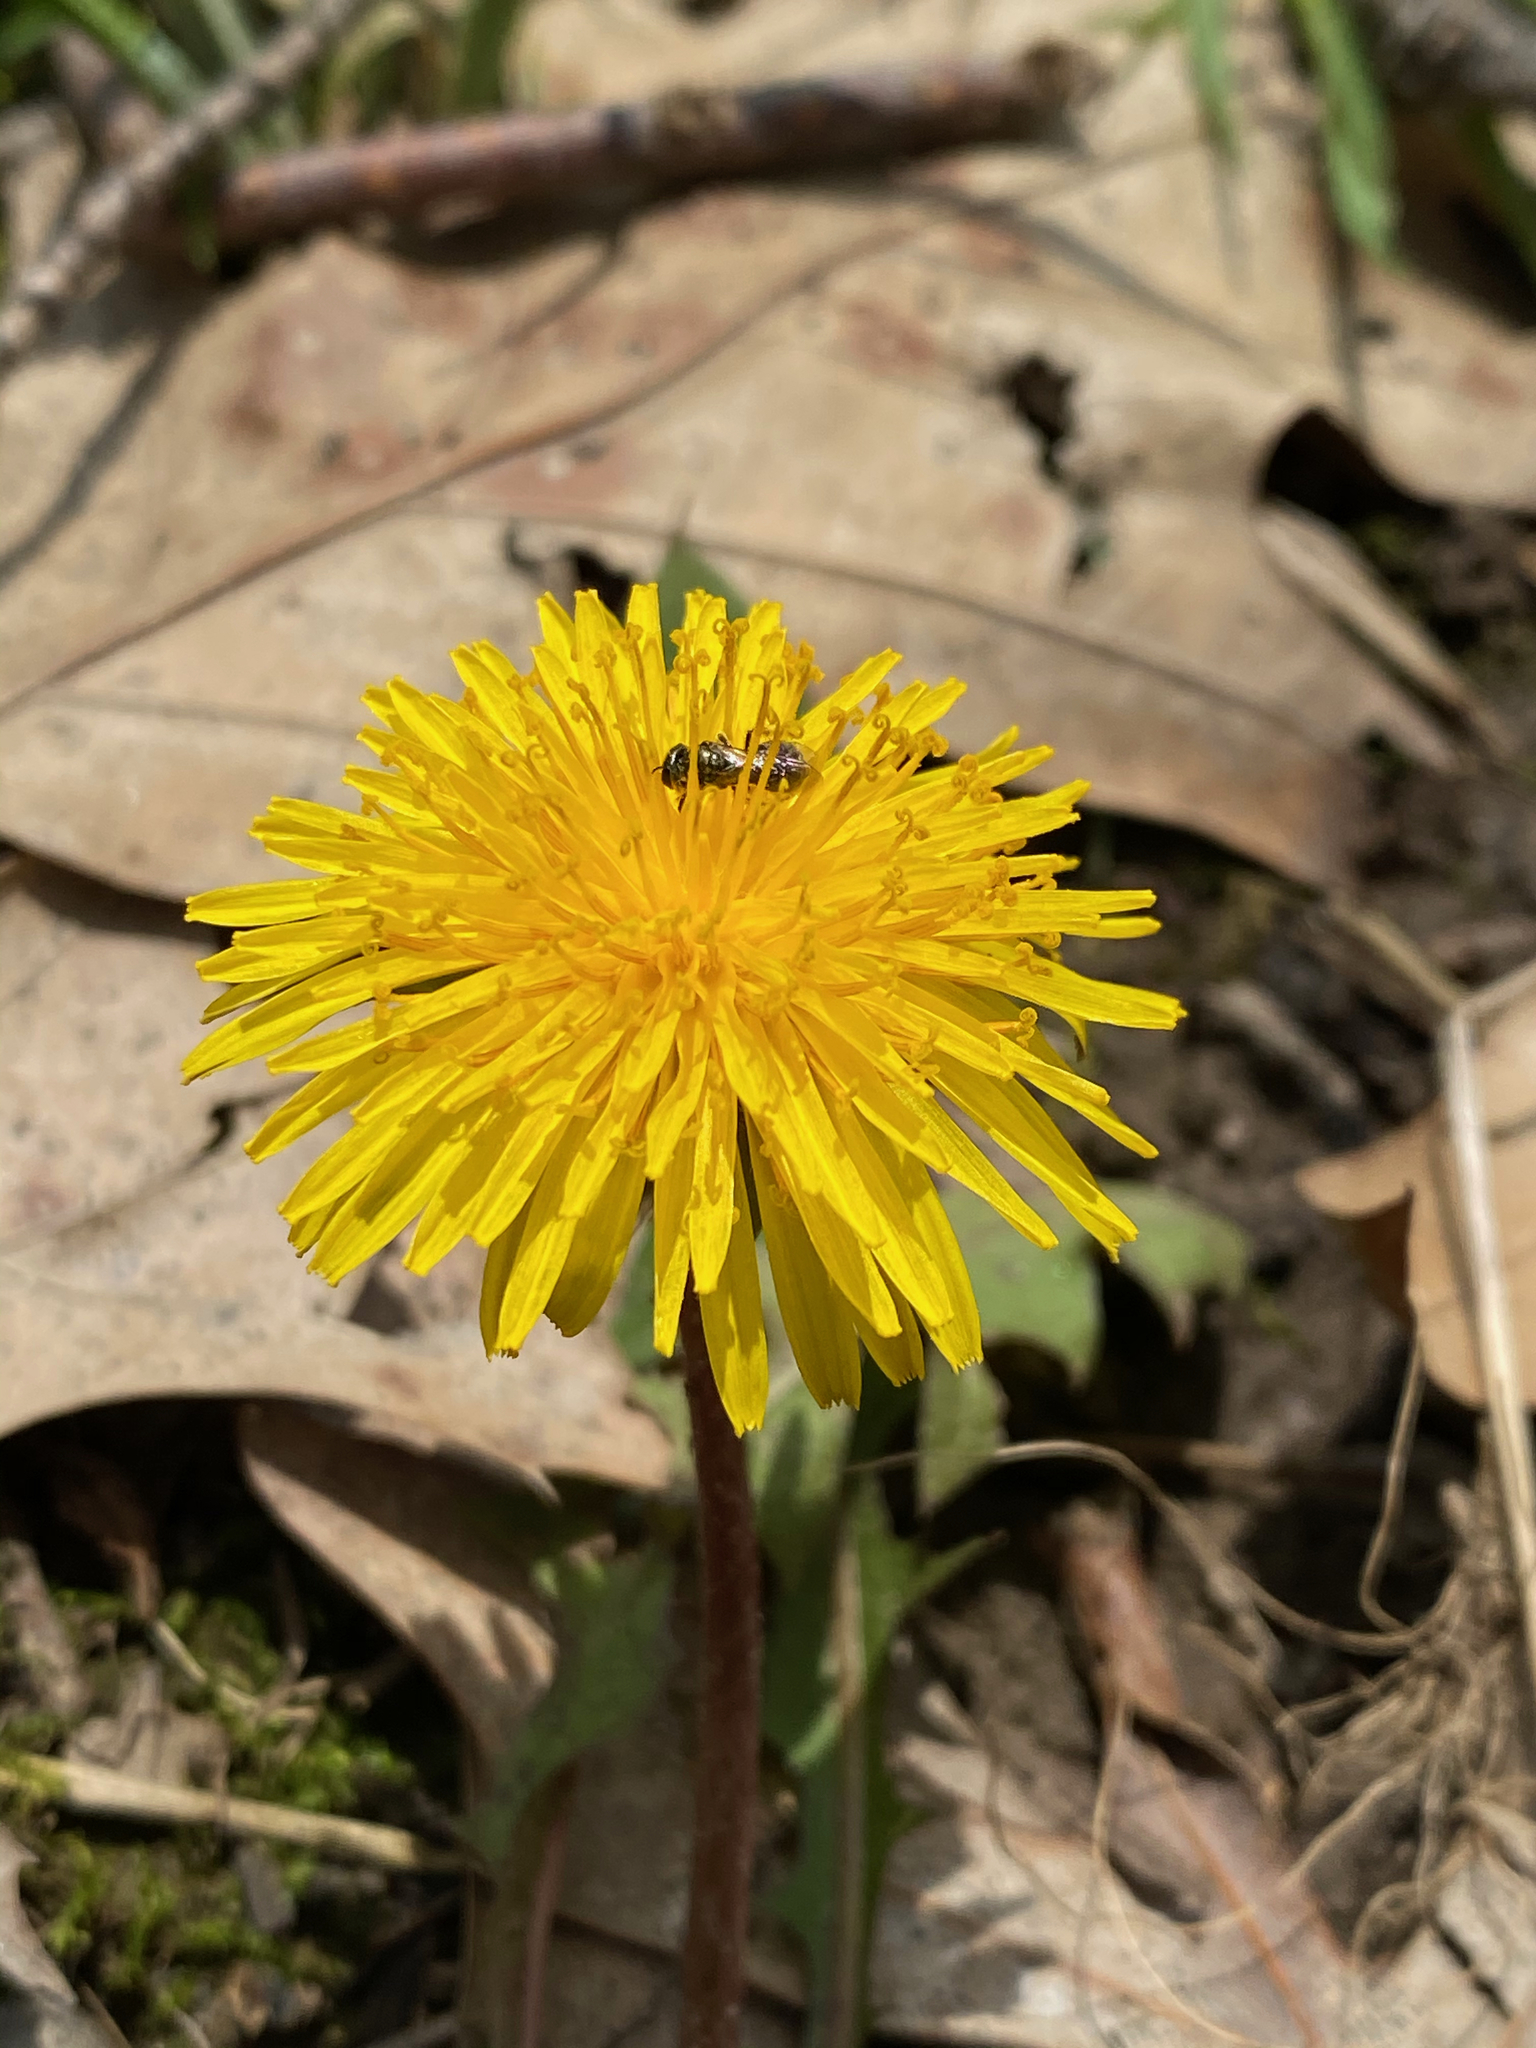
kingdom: Animalia
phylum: Arthropoda
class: Insecta
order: Hymenoptera
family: Halictidae
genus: Dialictus
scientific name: Dialictus
